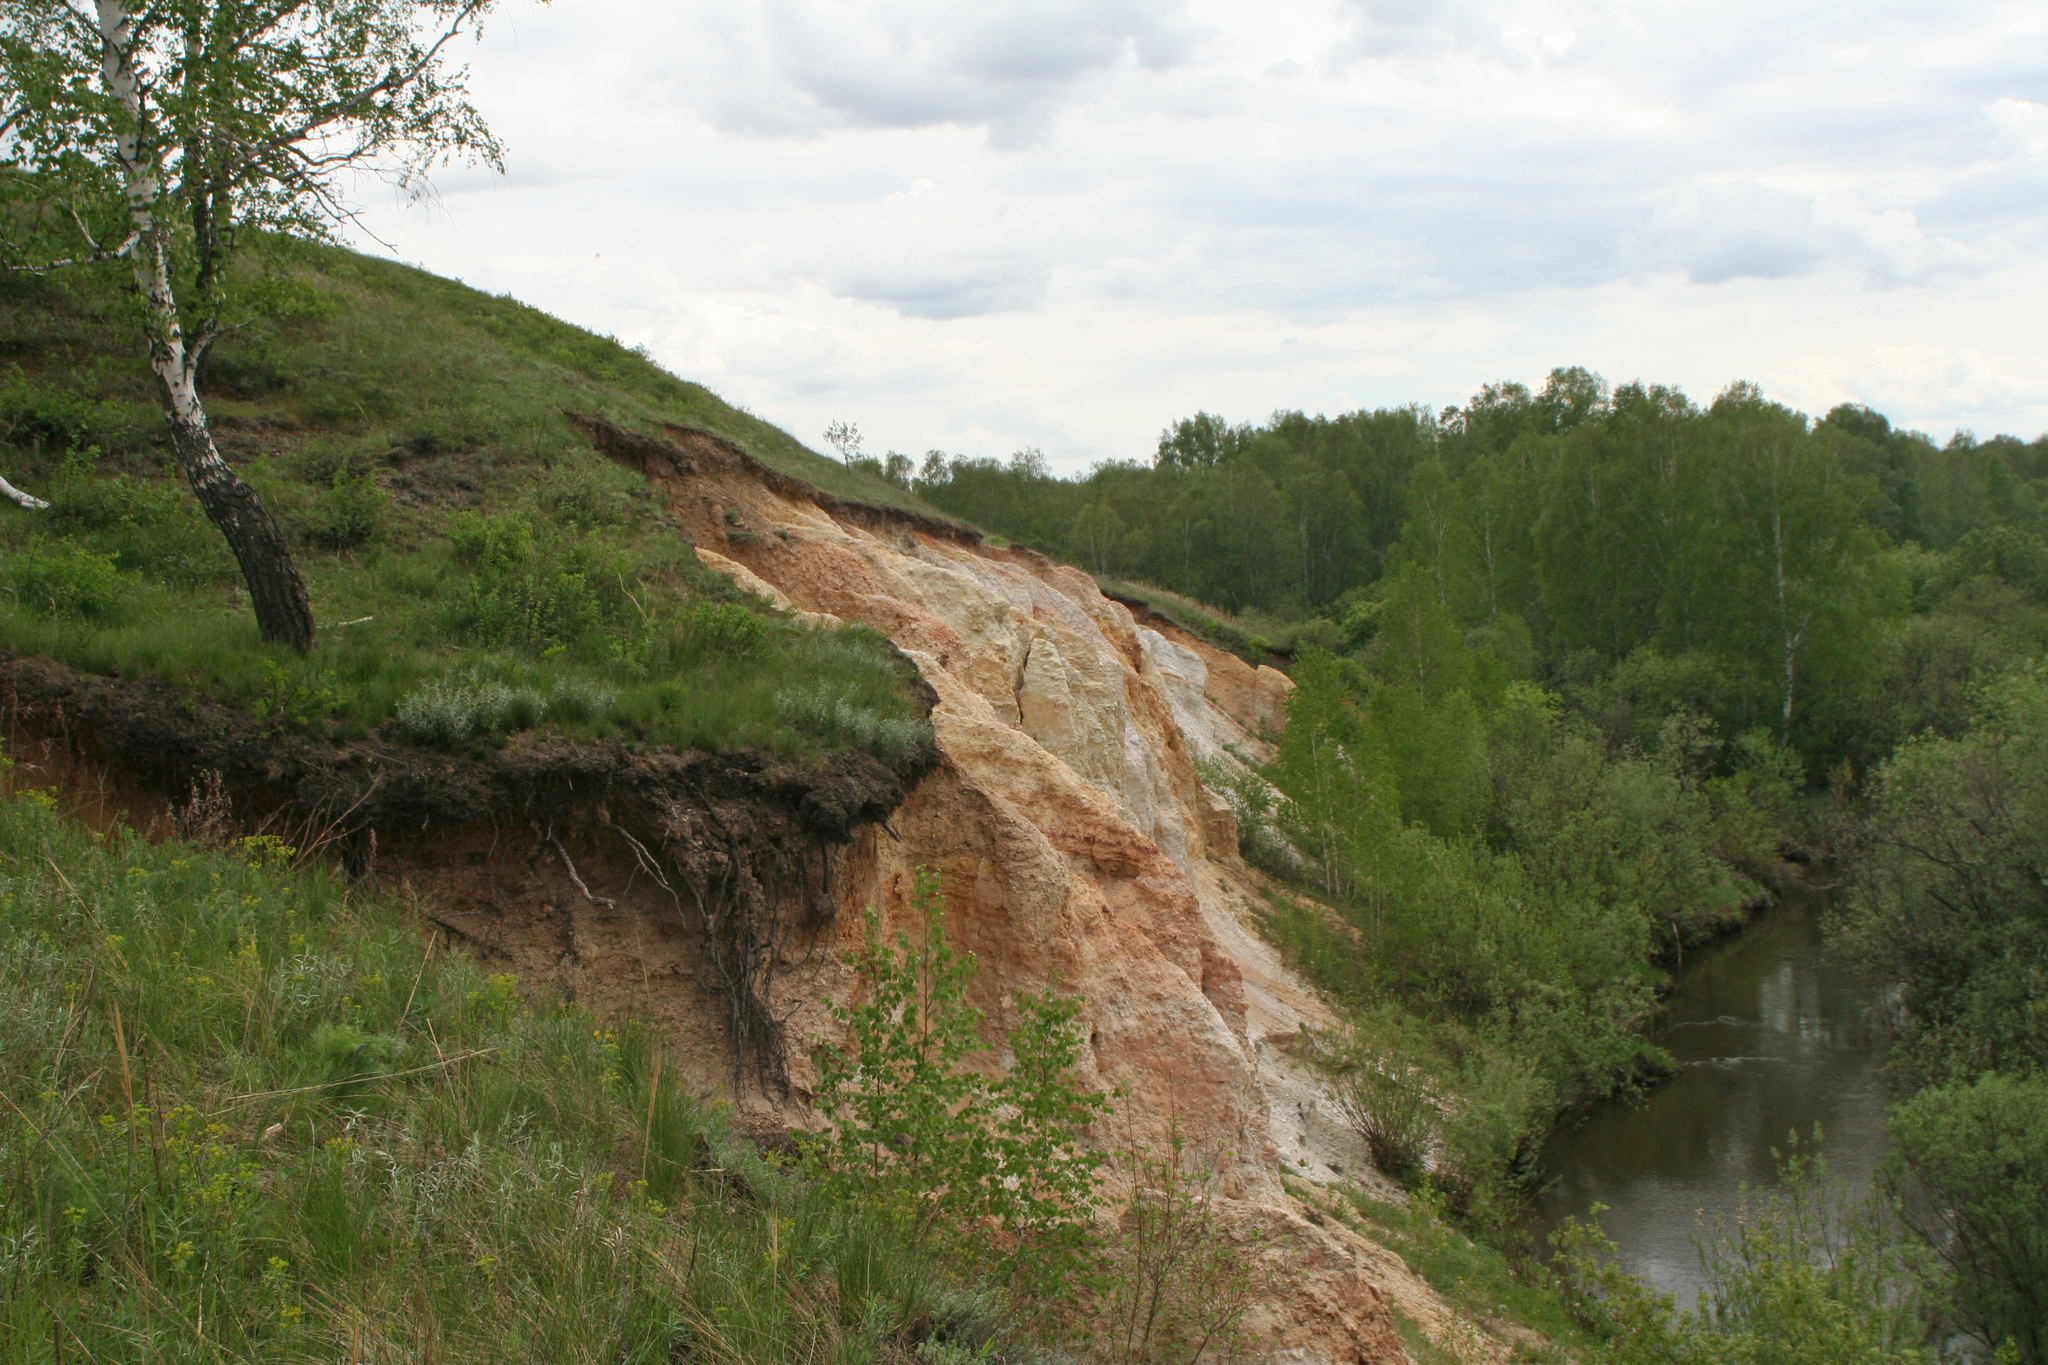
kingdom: Plantae
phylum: Tracheophyta
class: Magnoliopsida
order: Fagales
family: Betulaceae
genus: Betula
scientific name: Betula pendula
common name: Silver birch
